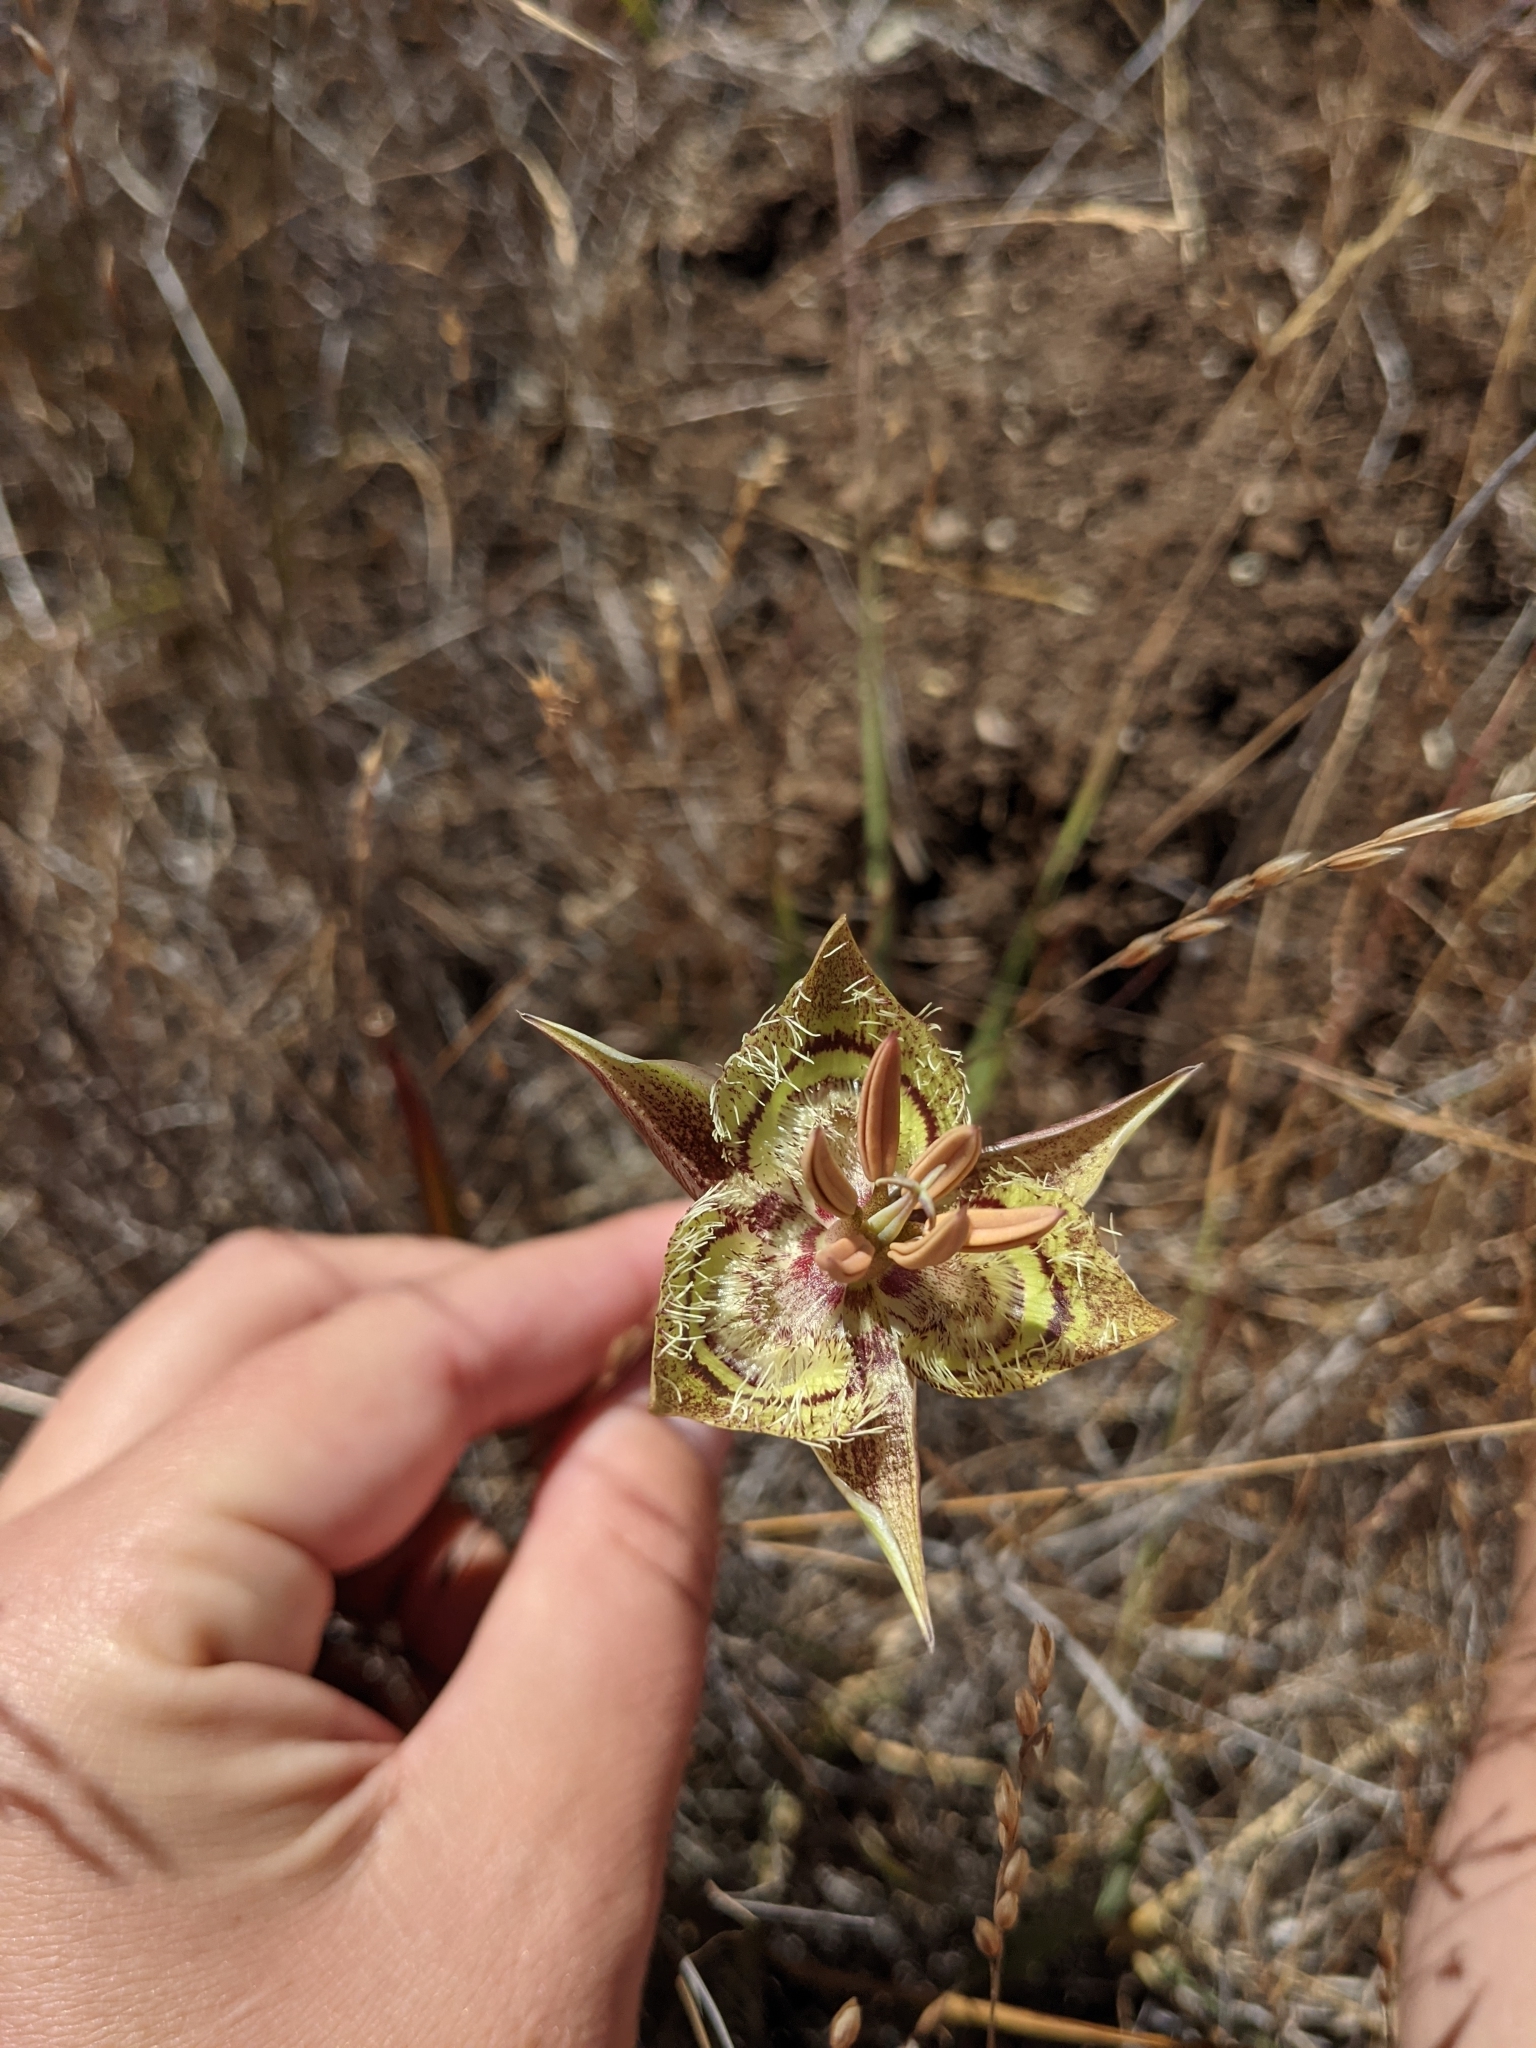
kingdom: Plantae
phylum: Tracheophyta
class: Liliopsida
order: Liliales
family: Liliaceae
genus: Calochortus
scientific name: Calochortus tiburonensis
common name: Tiburon mariposa-lily
